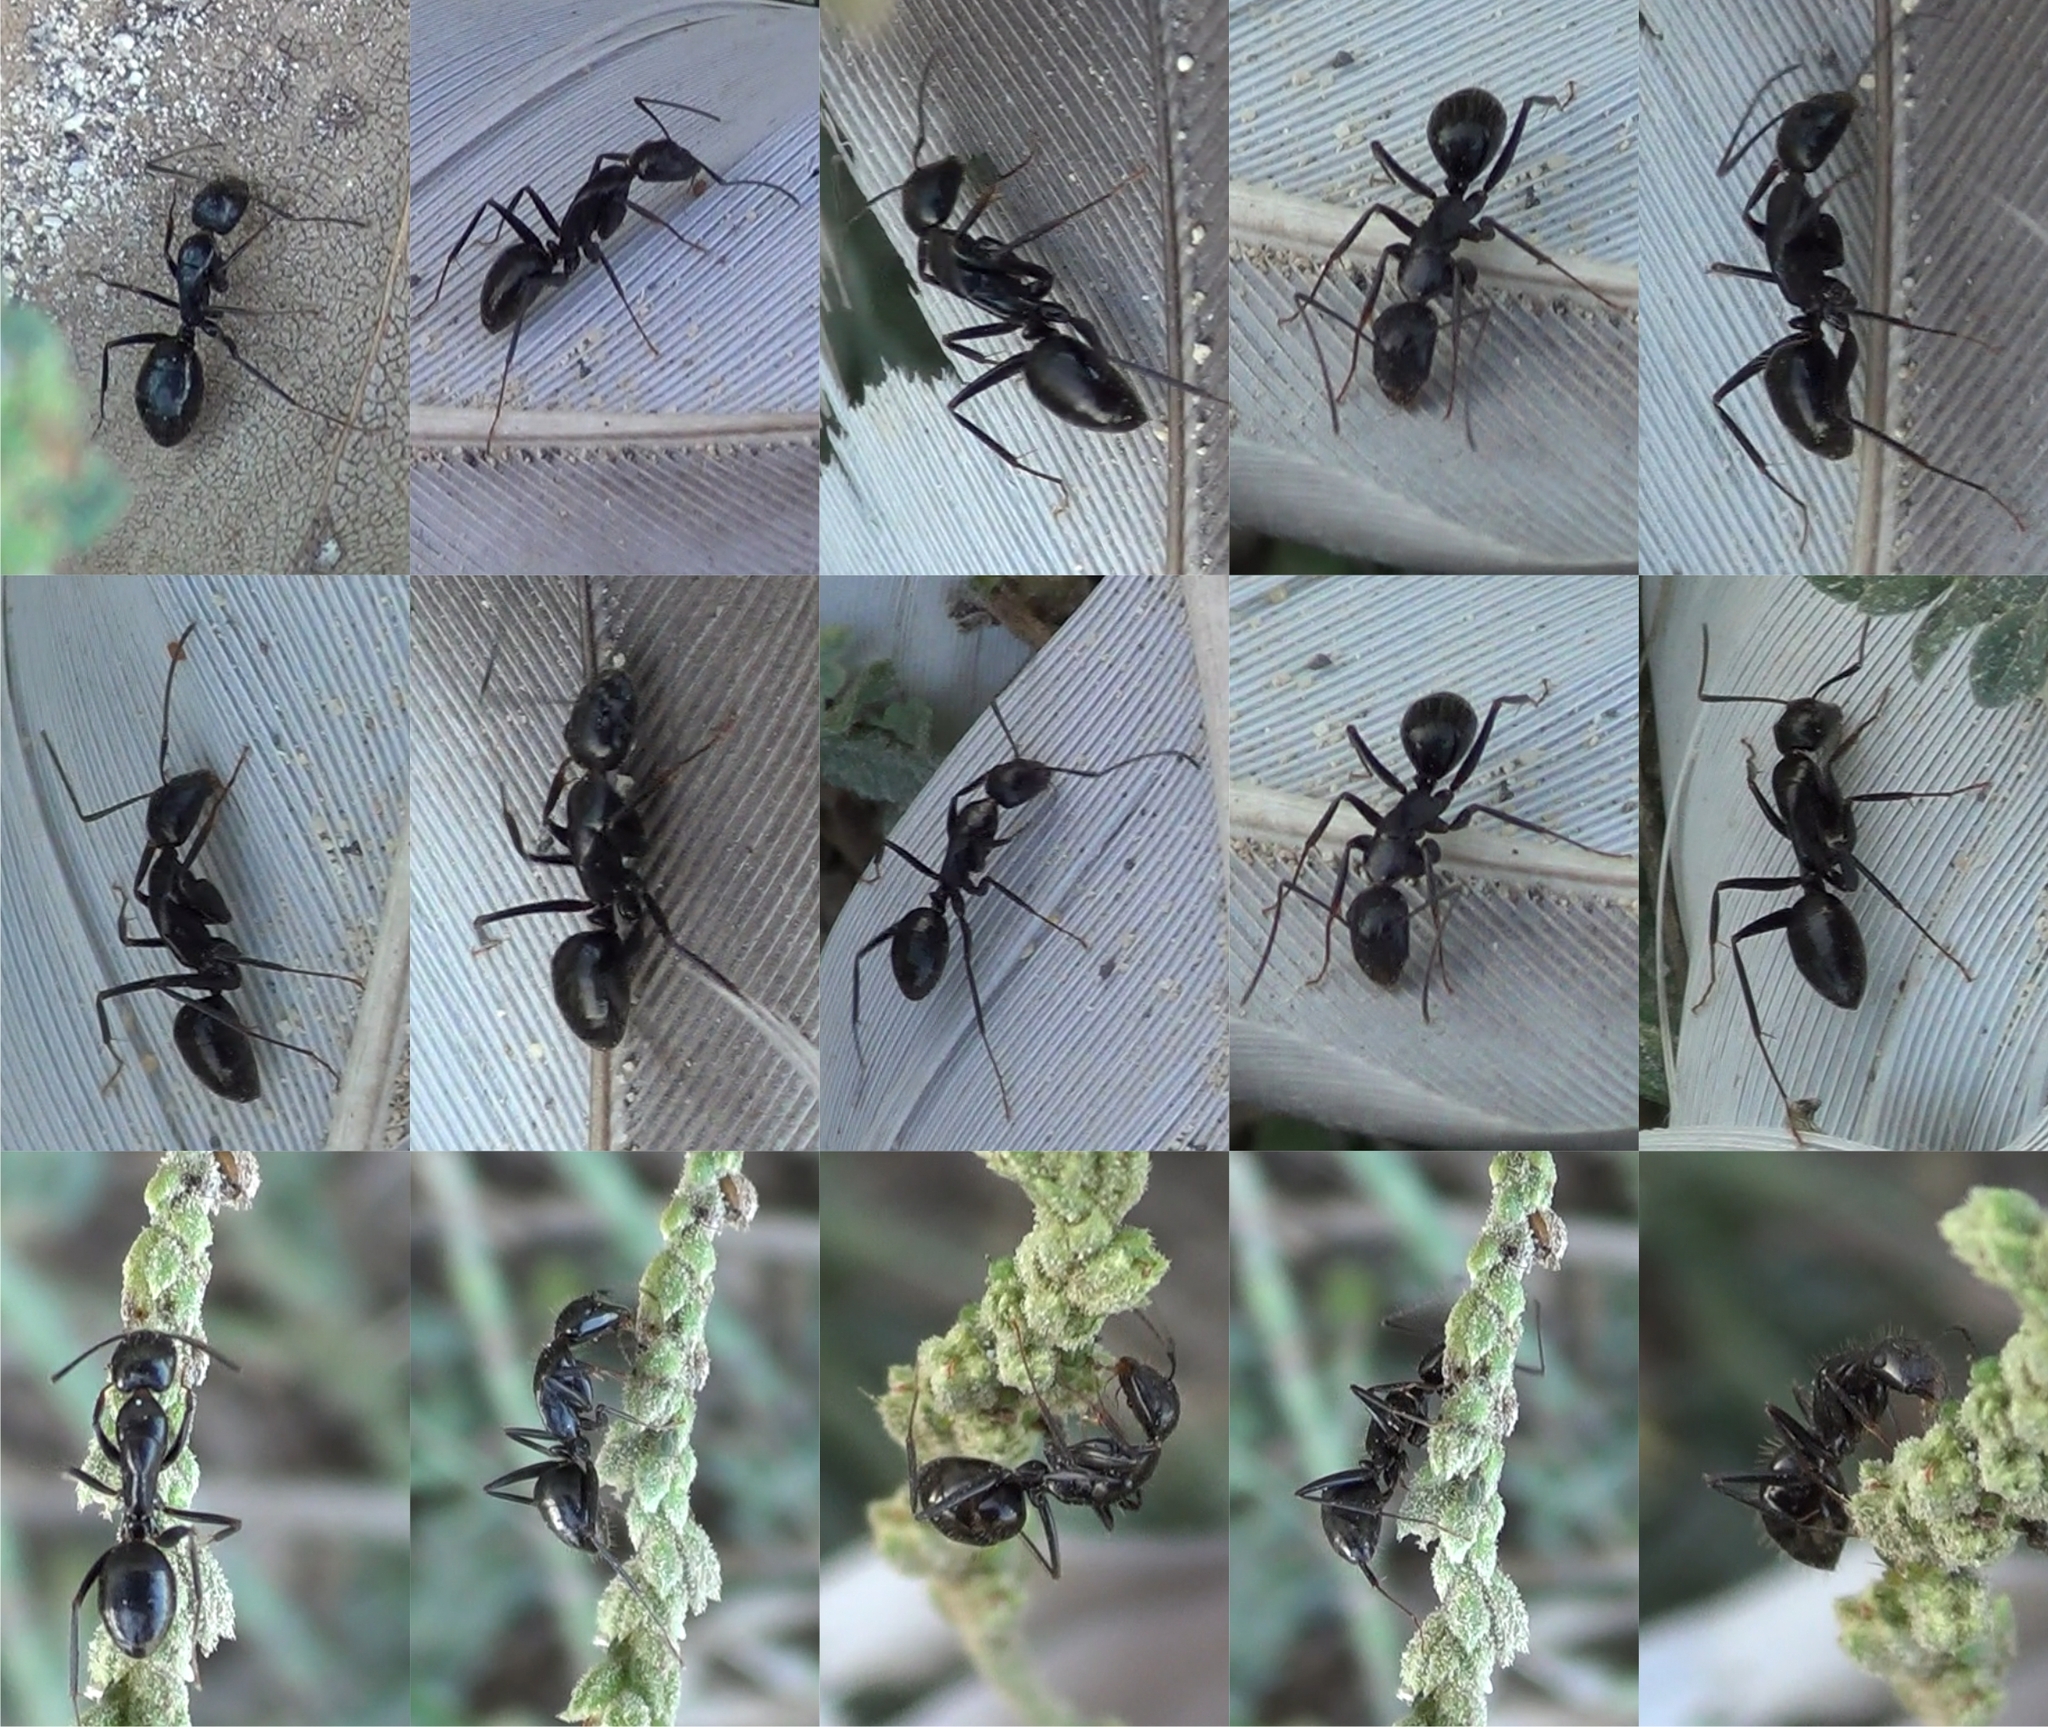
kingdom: Animalia
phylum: Arthropoda
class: Insecta
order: Hymenoptera
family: Formicidae
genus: Camponotus
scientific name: Camponotus aethiops
